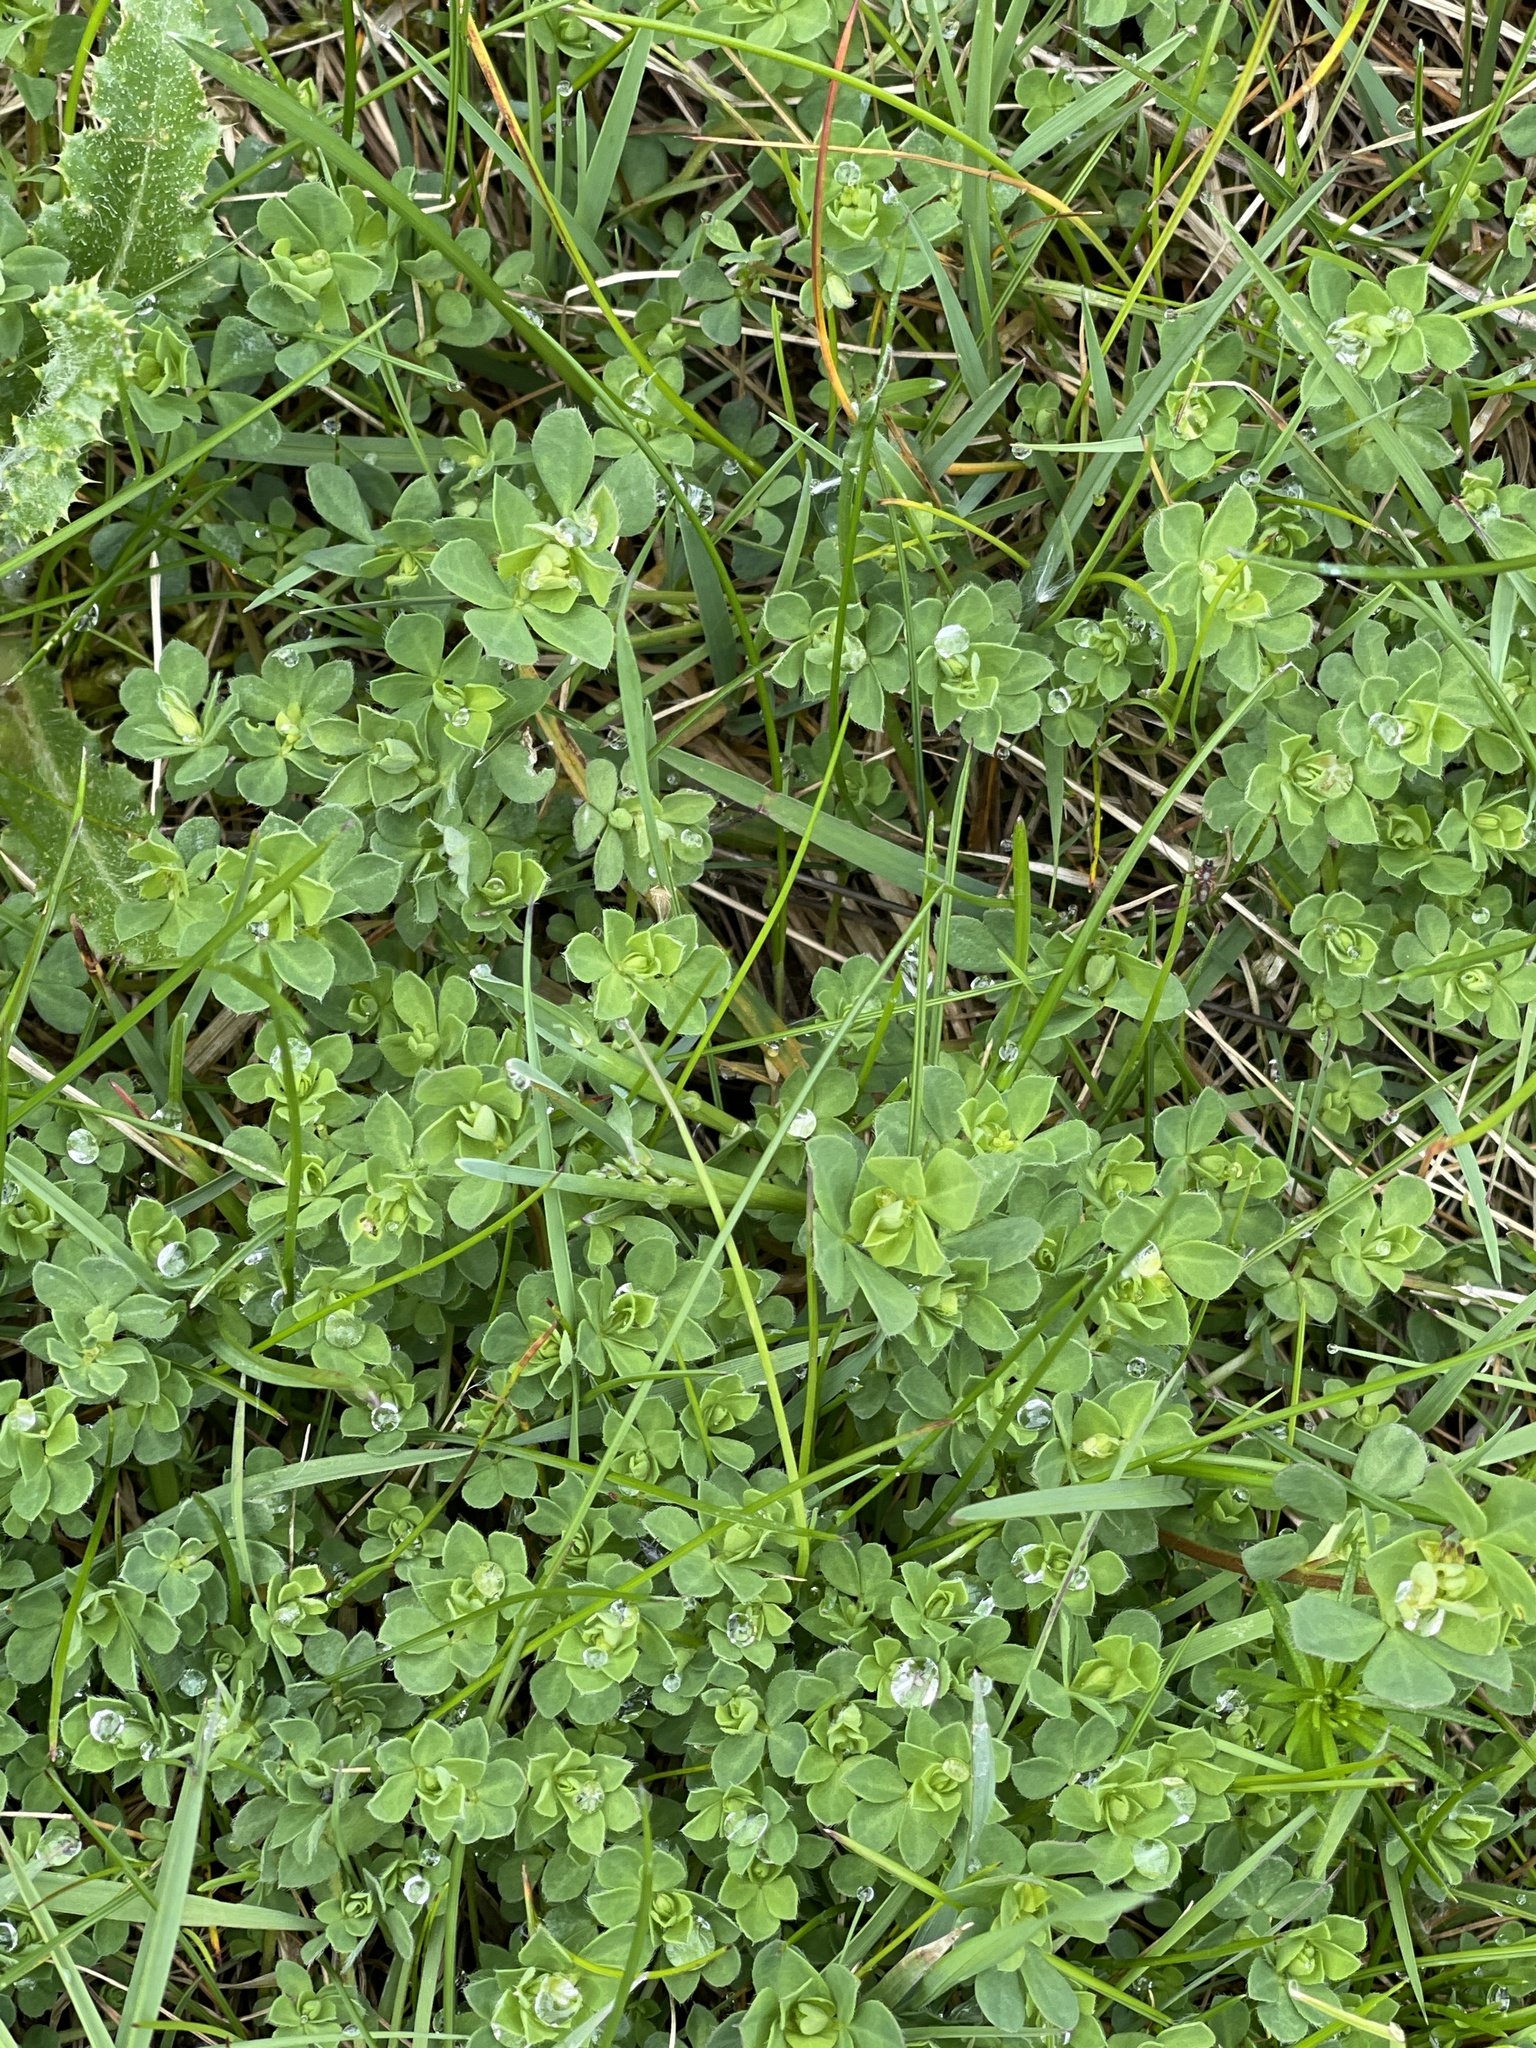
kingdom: Plantae
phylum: Tracheophyta
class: Magnoliopsida
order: Fabales
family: Fabaceae
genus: Lotus
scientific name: Lotus corniculatus
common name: Common bird's-foot-trefoil
